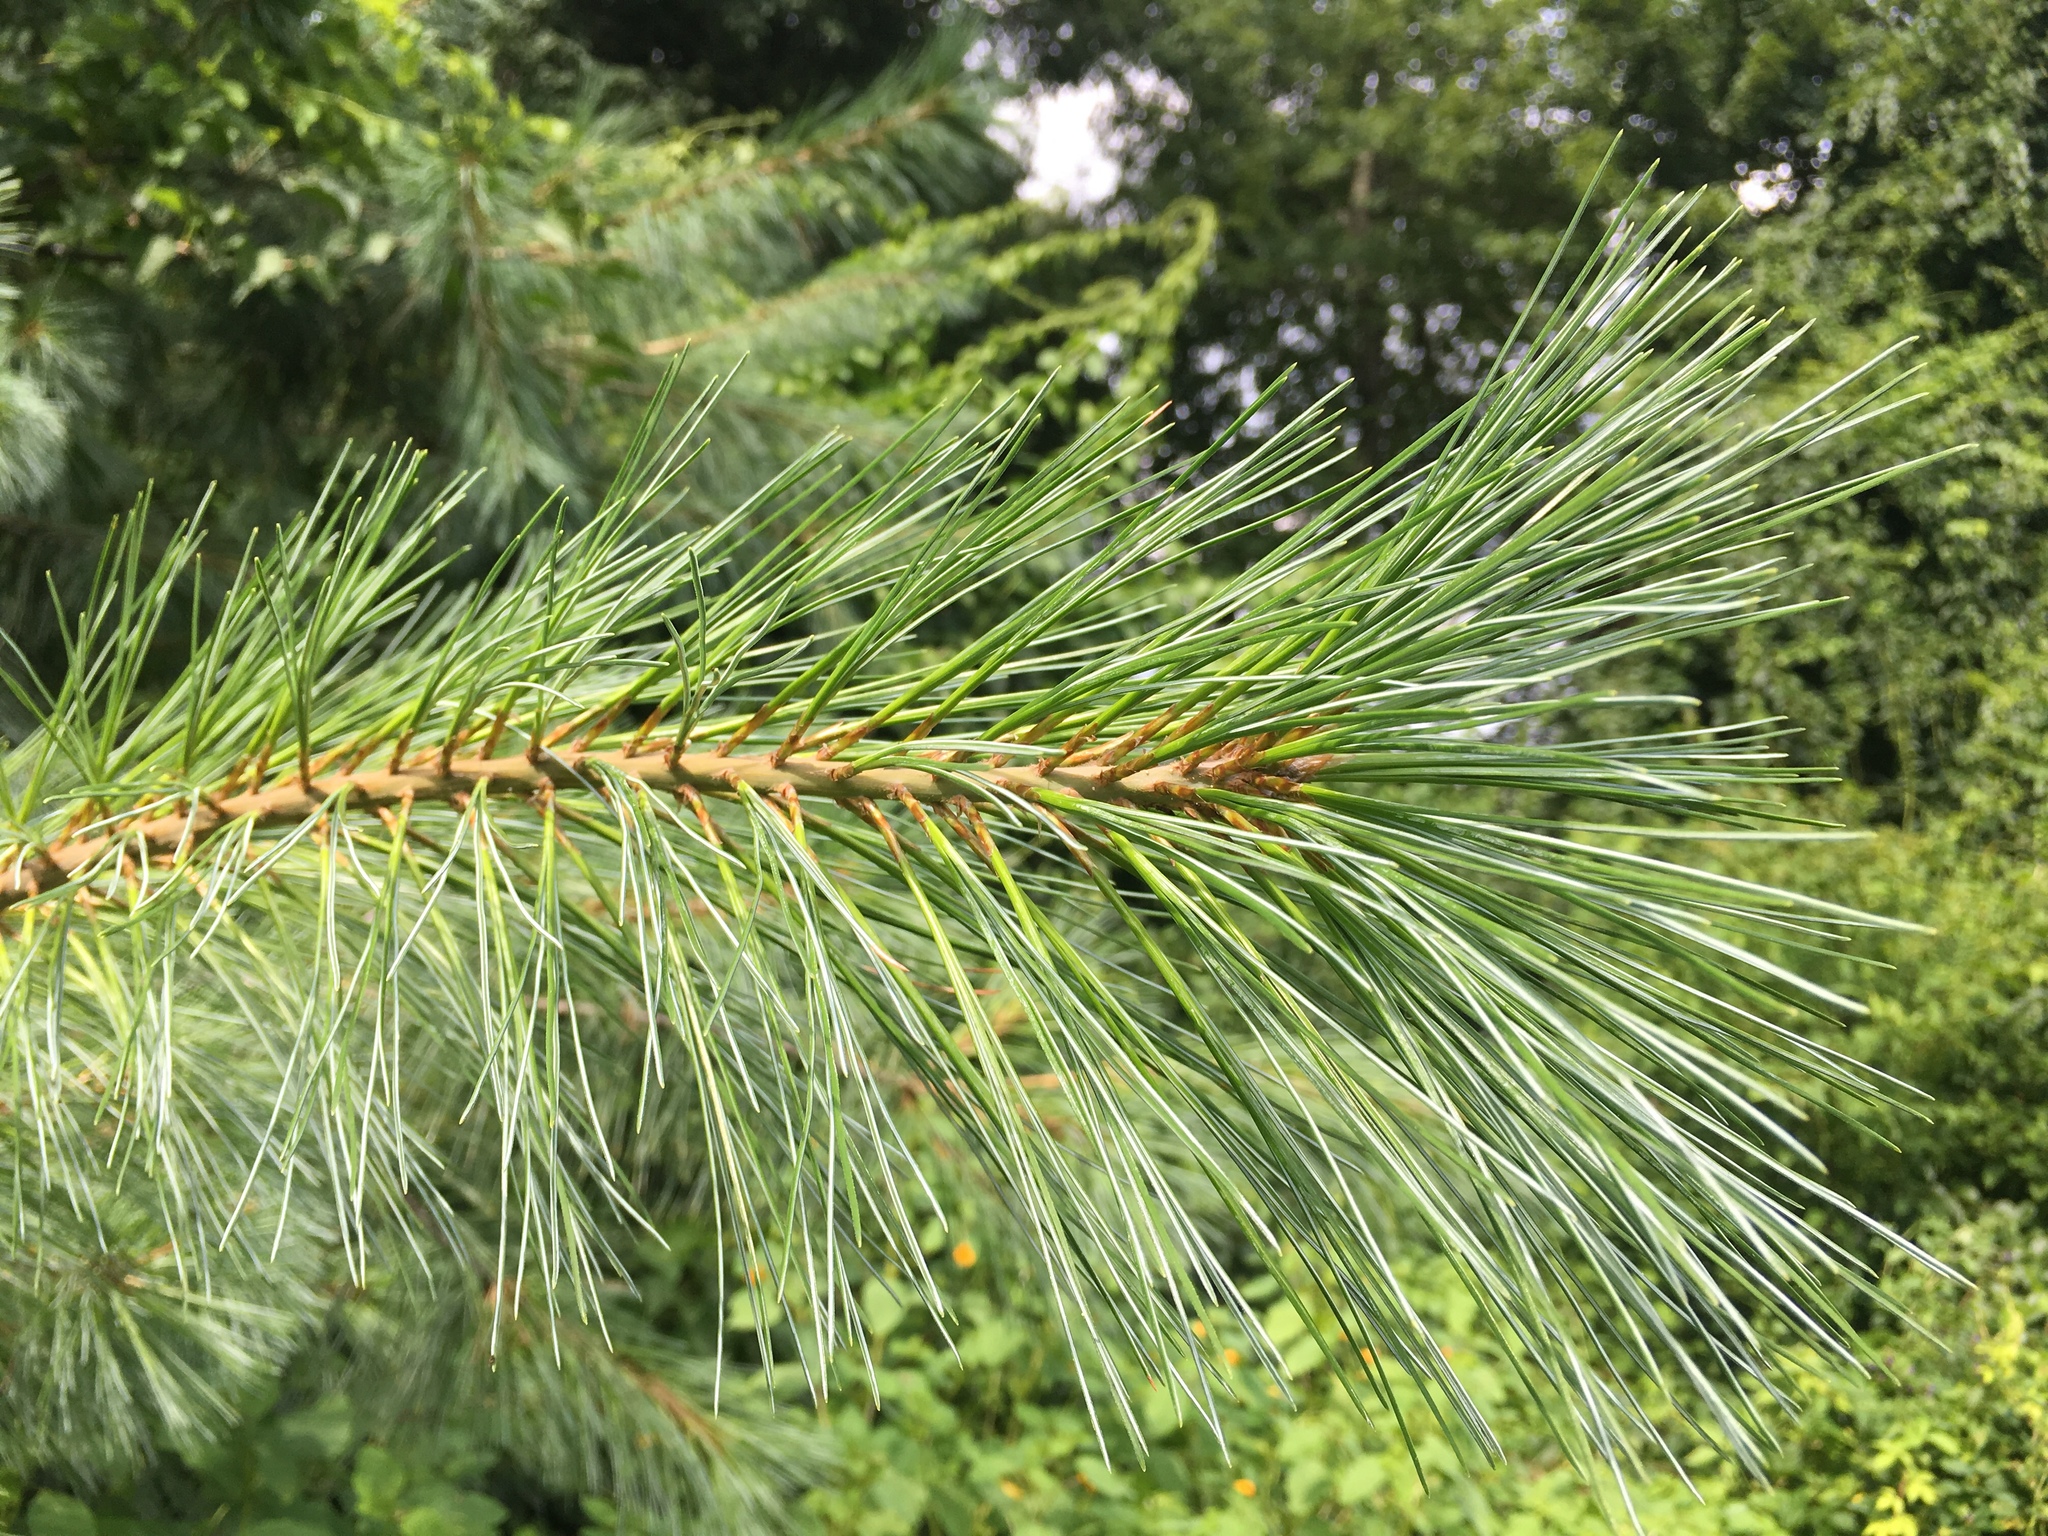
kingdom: Plantae
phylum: Tracheophyta
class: Pinopsida
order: Pinales
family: Pinaceae
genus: Pinus
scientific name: Pinus strobus
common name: Weymouth pine
